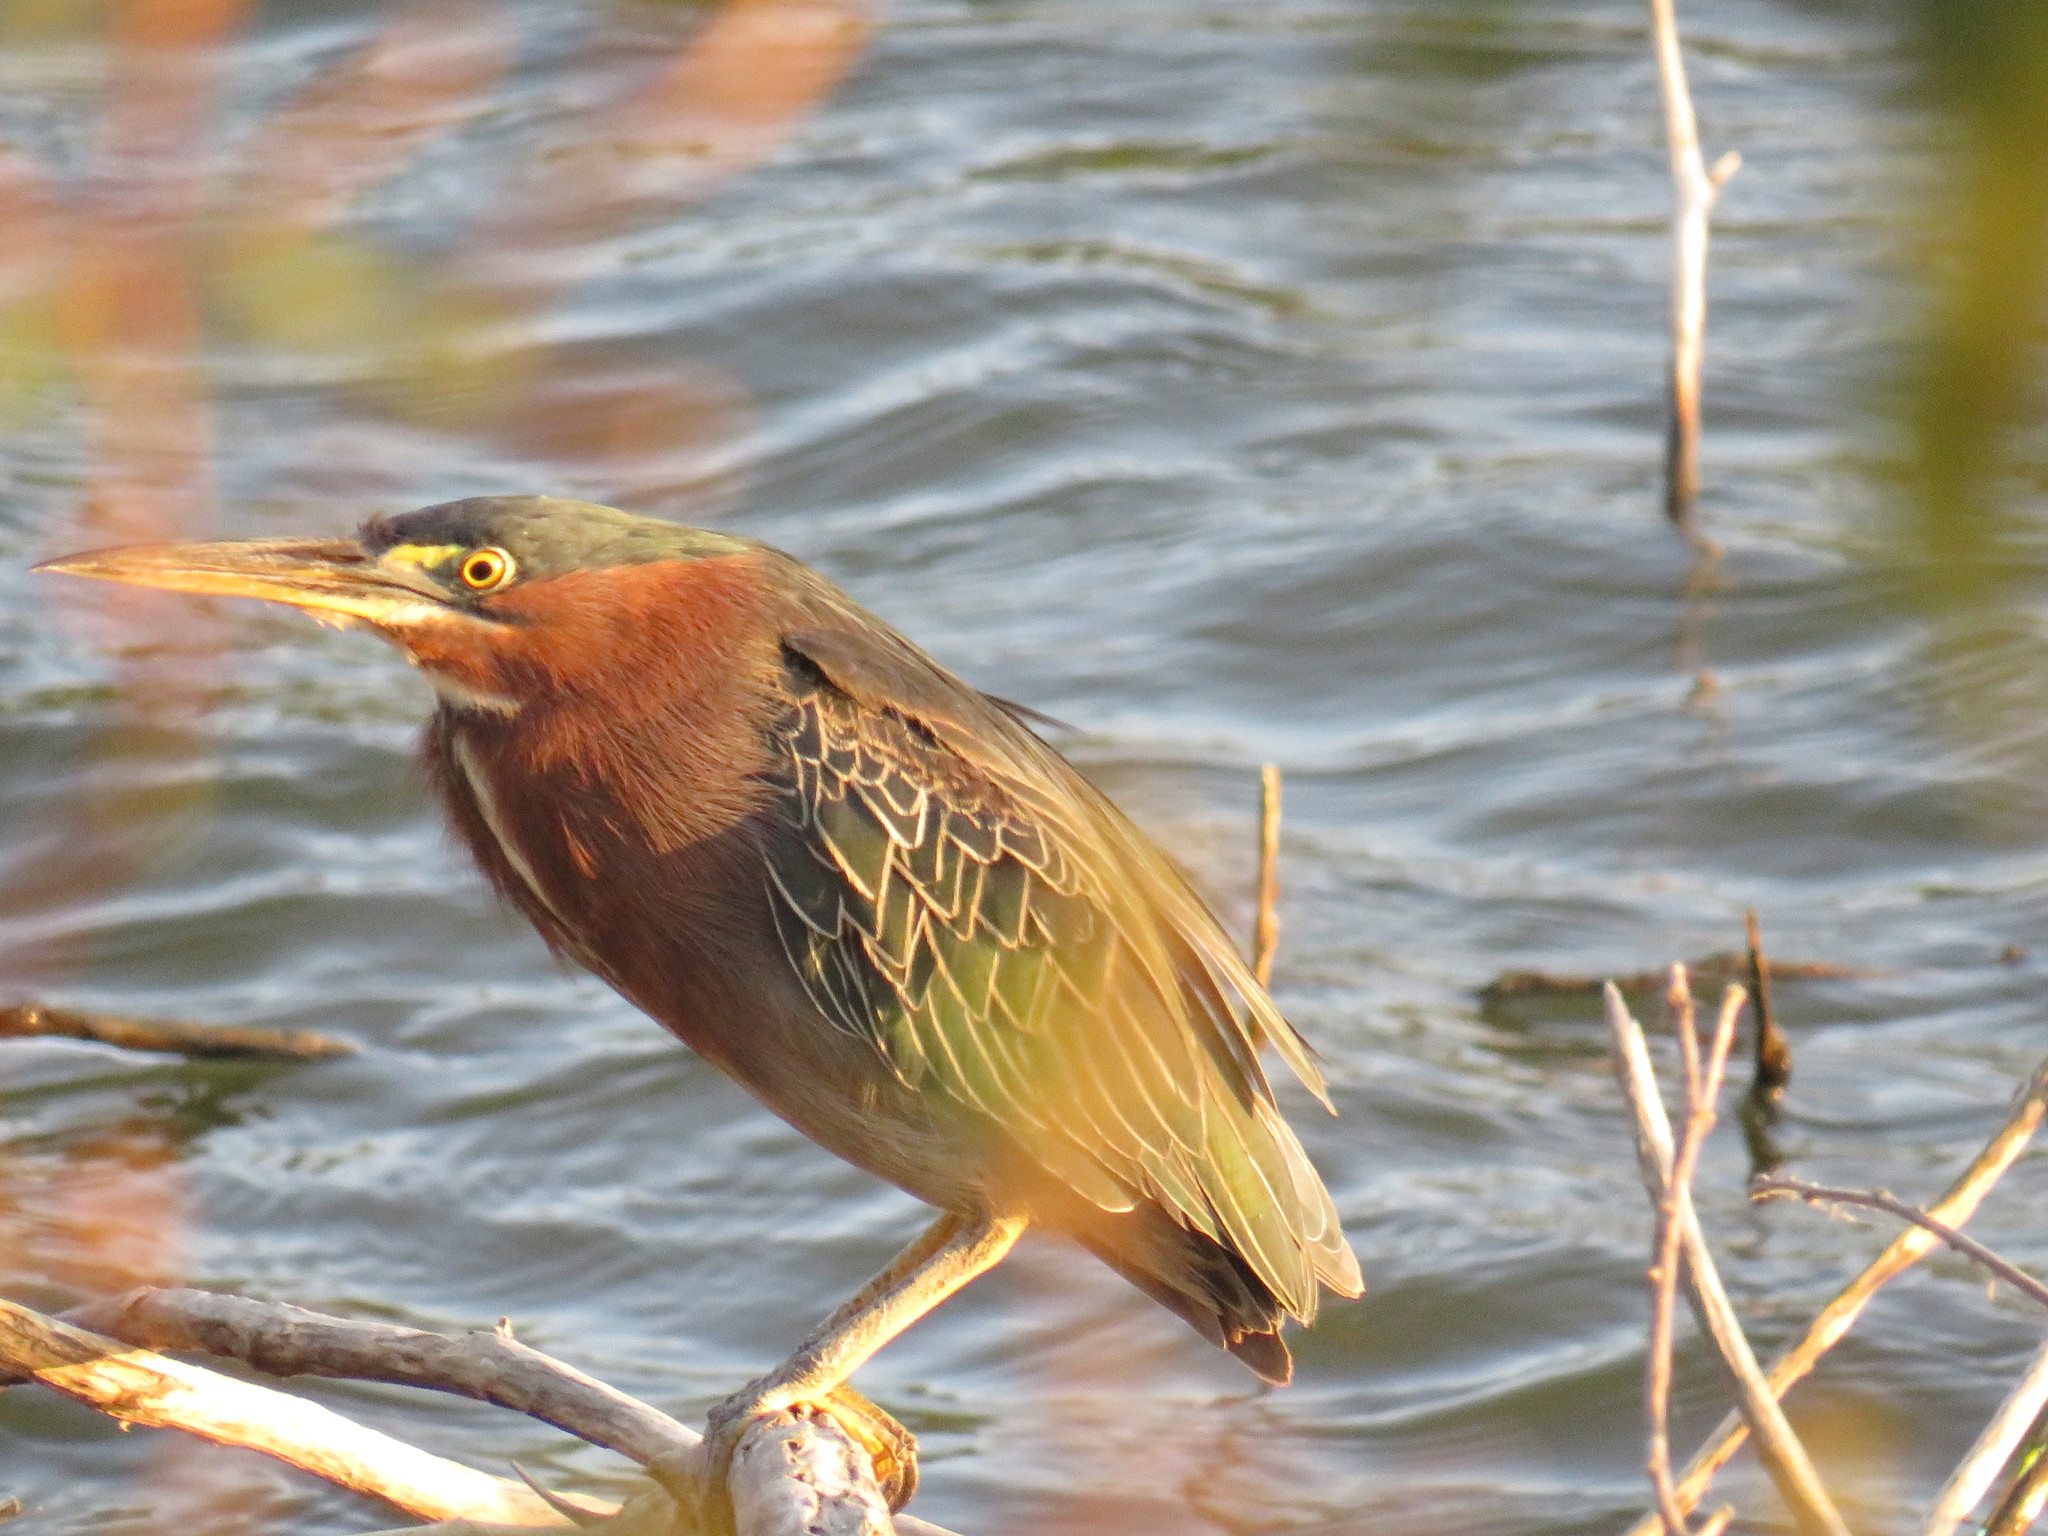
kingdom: Animalia
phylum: Chordata
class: Aves
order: Pelecaniformes
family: Ardeidae
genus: Butorides
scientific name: Butorides virescens
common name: Green heron
